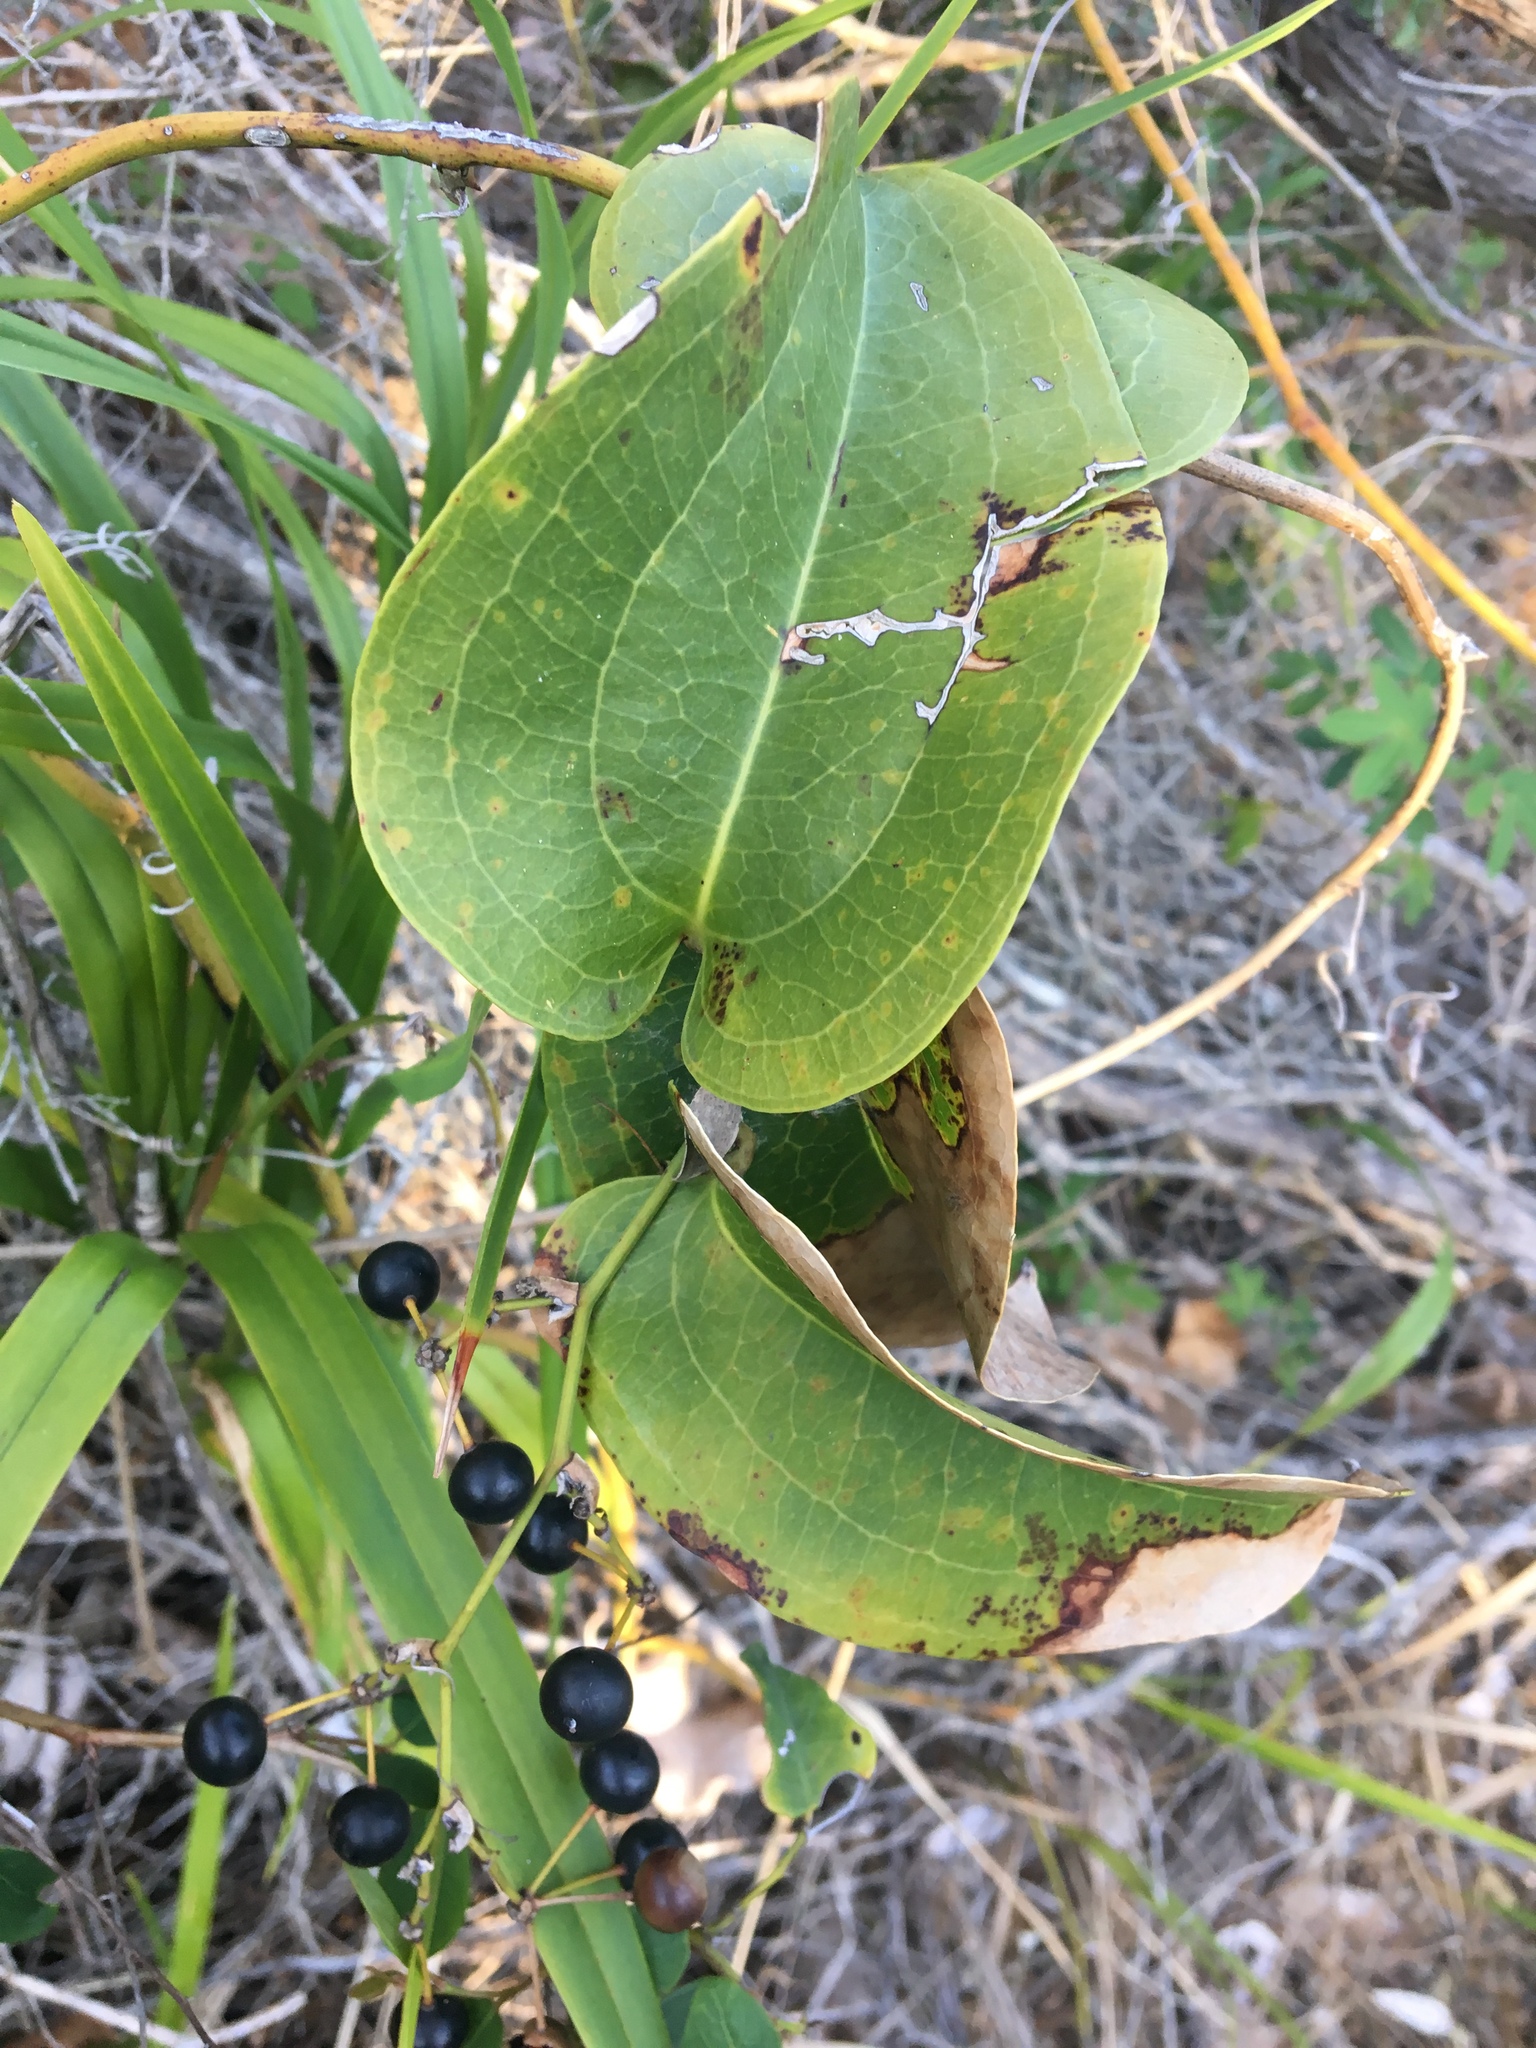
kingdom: Plantae
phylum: Tracheophyta
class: Liliopsida
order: Liliales
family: Smilacaceae
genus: Smilax
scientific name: Smilax australis
